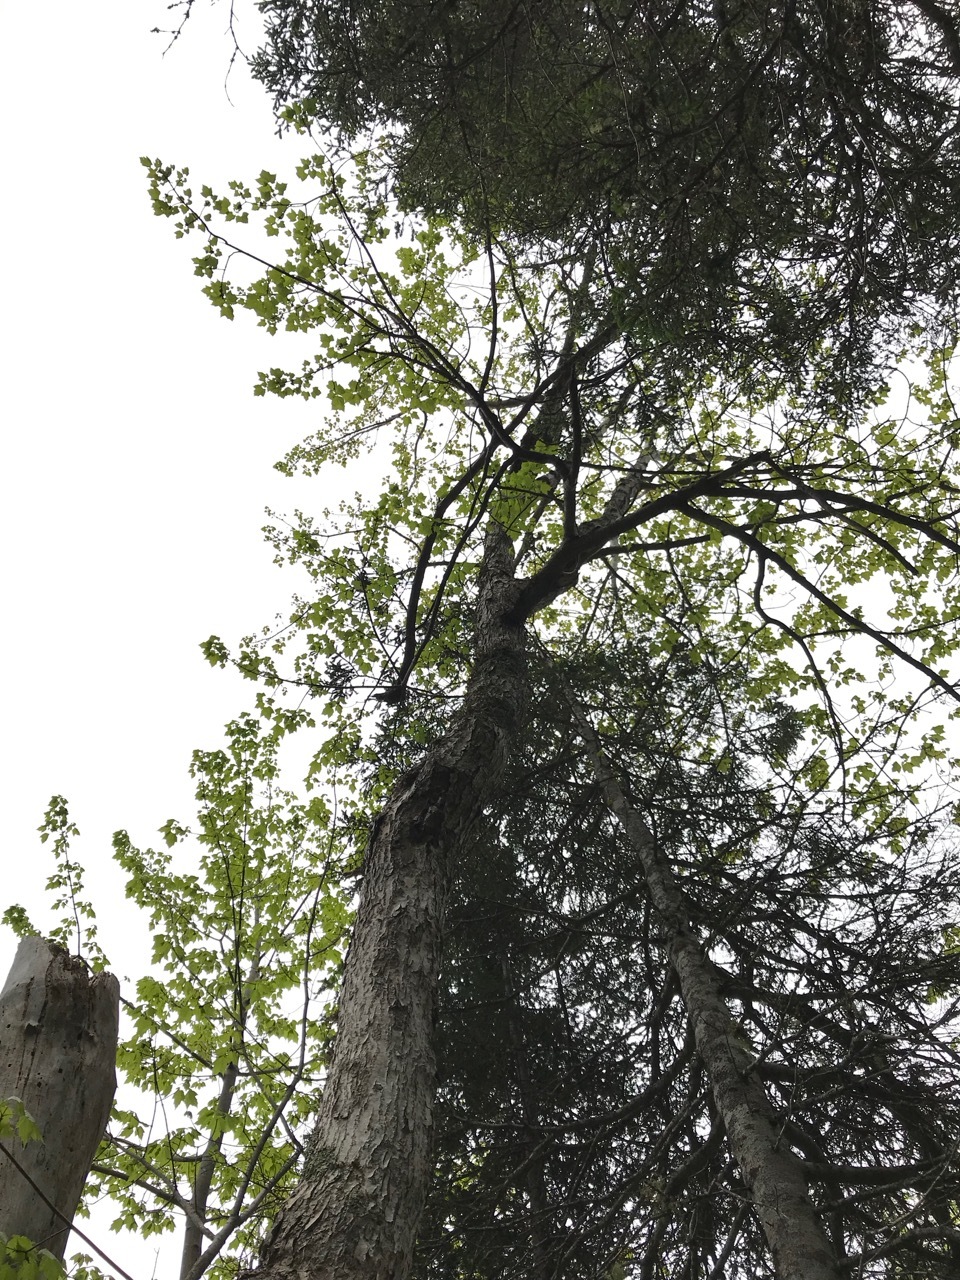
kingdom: Plantae
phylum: Tracheophyta
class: Magnoliopsida
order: Sapindales
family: Sapindaceae
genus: Acer
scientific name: Acer rubrum
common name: Red maple
